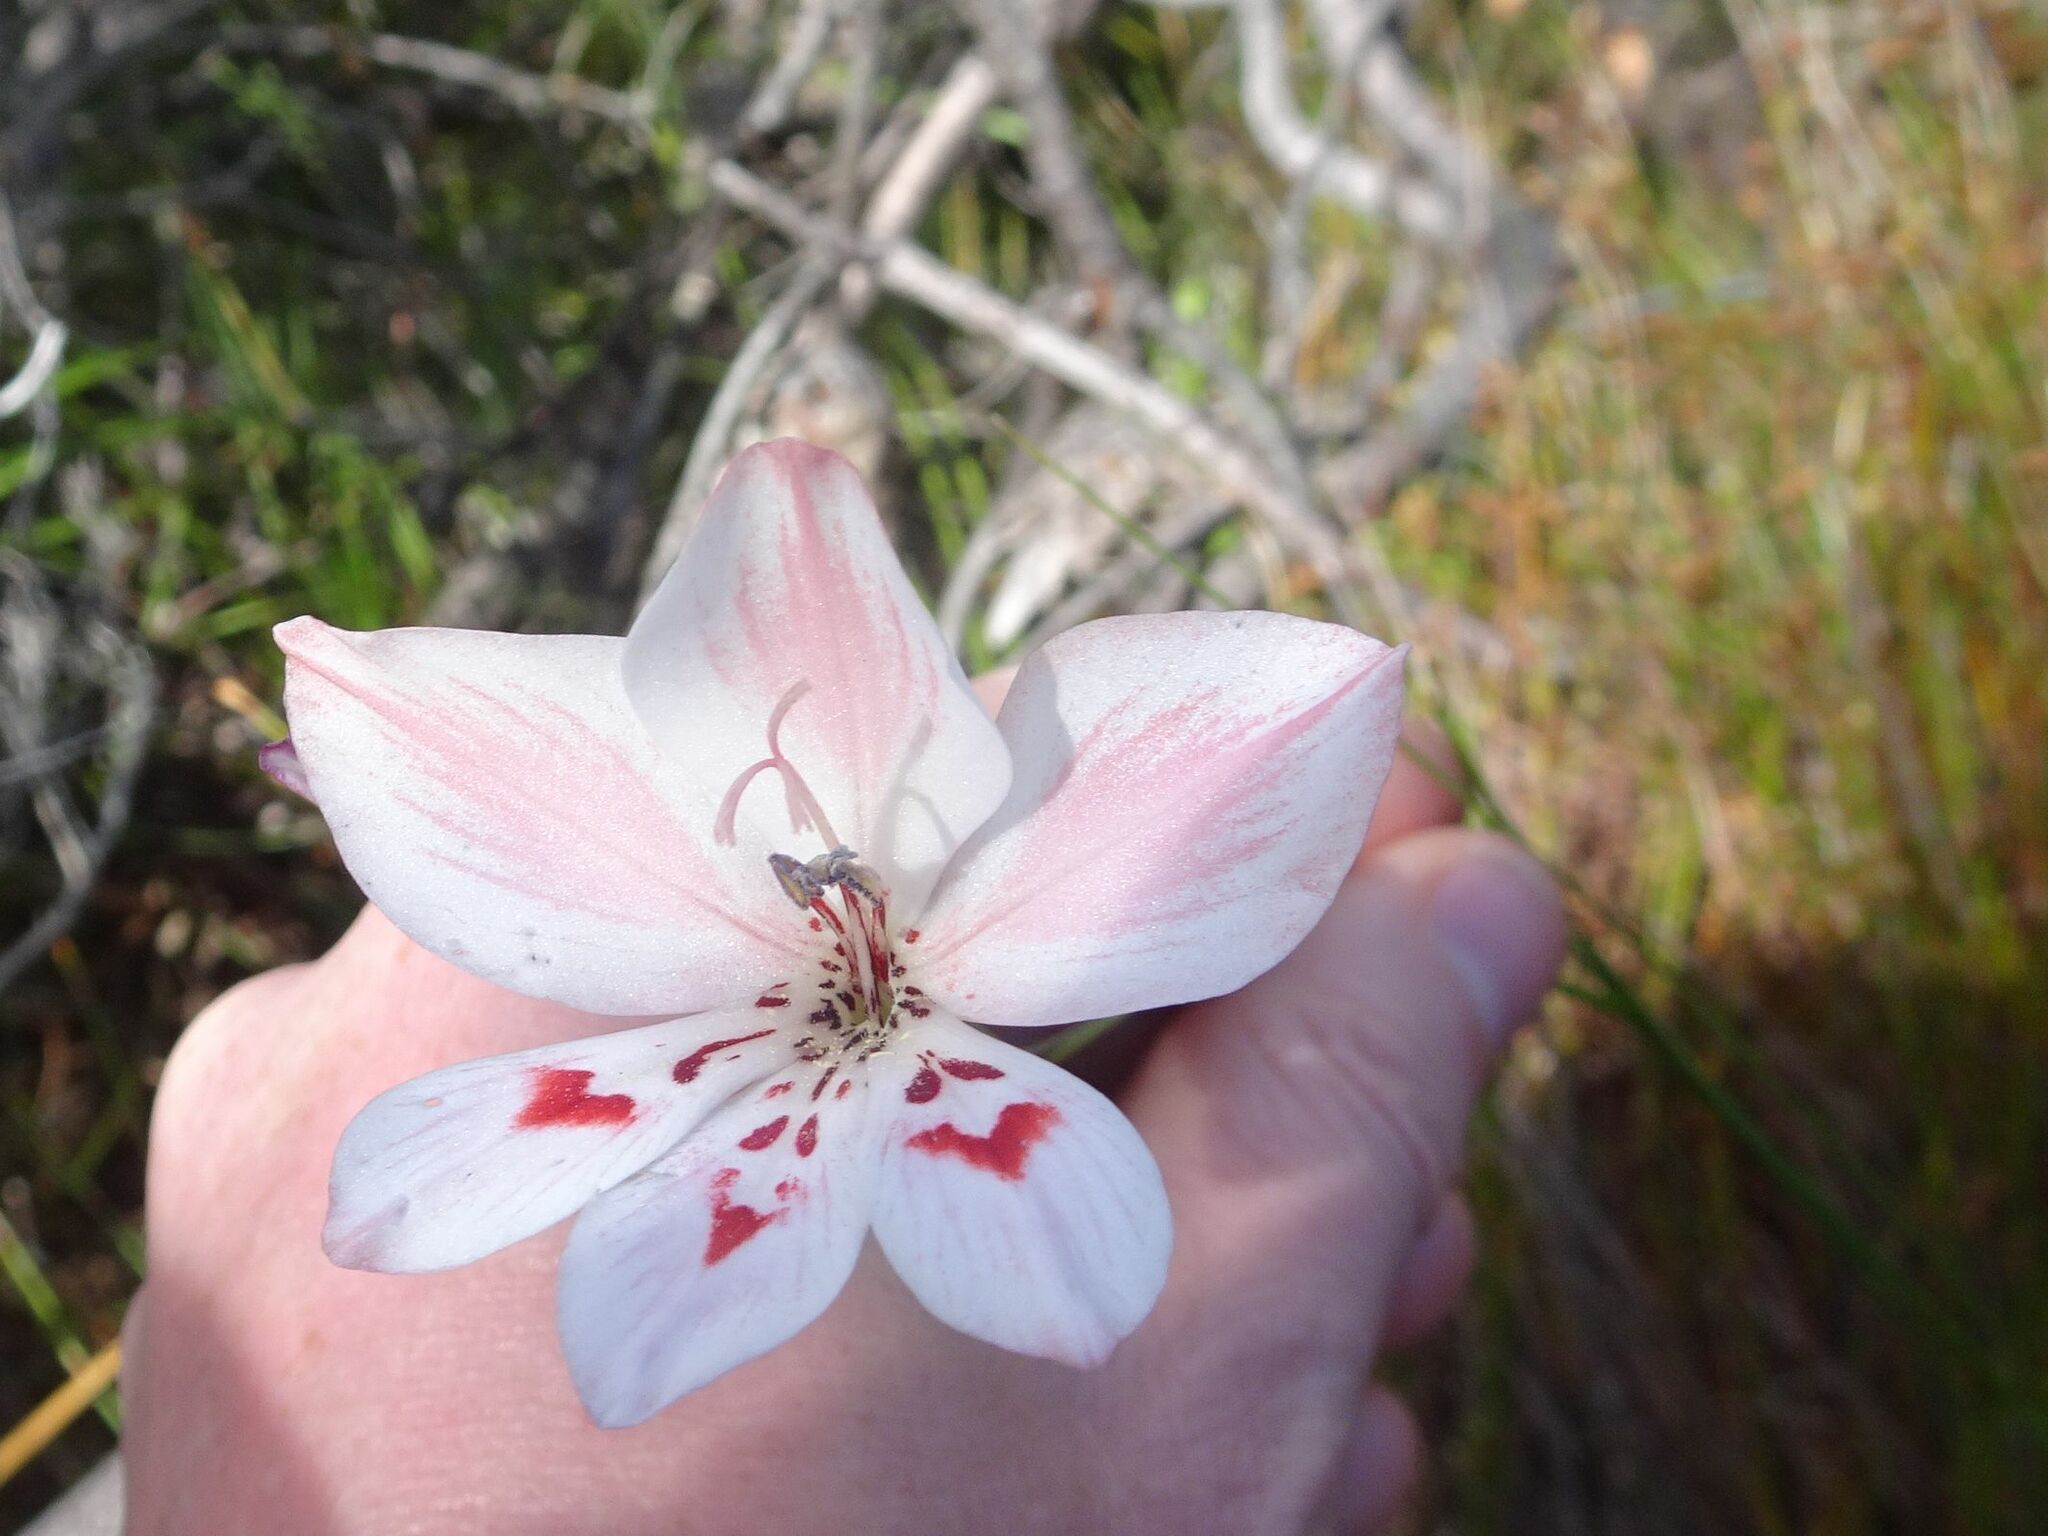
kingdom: Plantae
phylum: Tracheophyta
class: Liliopsida
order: Asparagales
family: Iridaceae
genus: Gladiolus
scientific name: Gladiolus debilis
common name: Painted-lady
